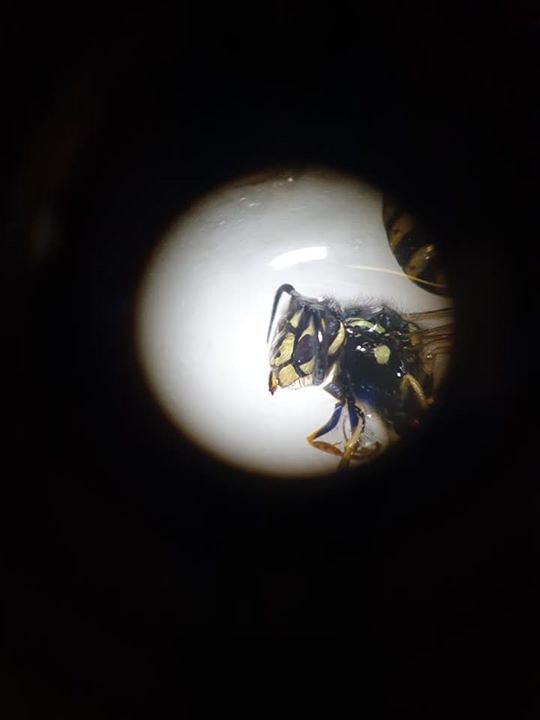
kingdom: Animalia
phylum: Arthropoda
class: Insecta
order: Hymenoptera
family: Vespidae
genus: Vespula
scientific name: Vespula vulgaris
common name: Common wasp
